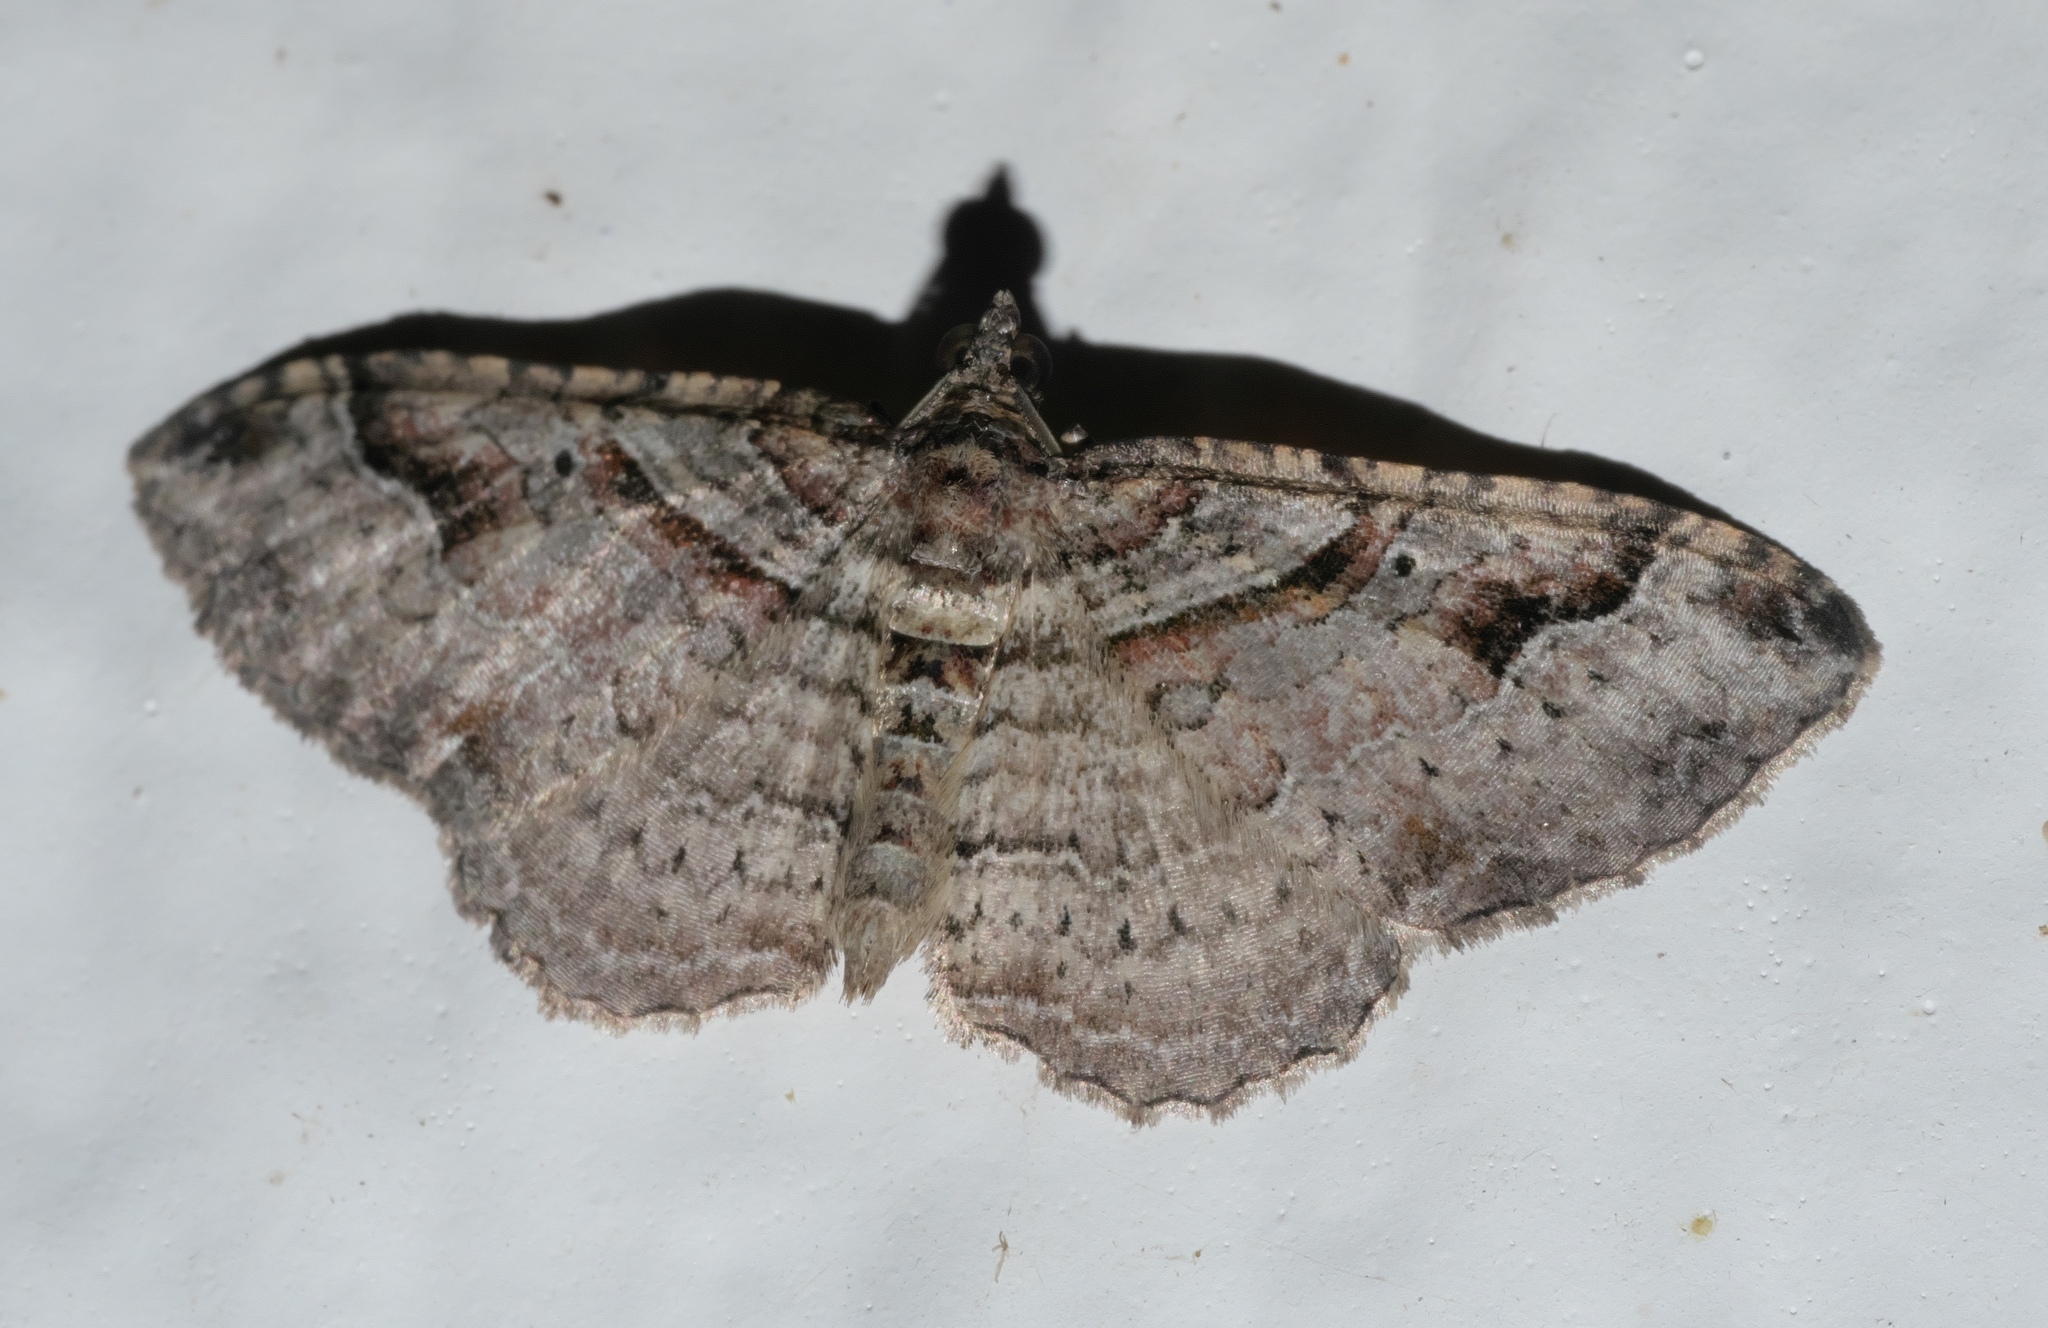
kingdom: Animalia
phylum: Arthropoda
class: Insecta
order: Lepidoptera
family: Geometridae
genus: Costaconvexa
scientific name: Costaconvexa centrostrigaria
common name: Bent-line carpet
